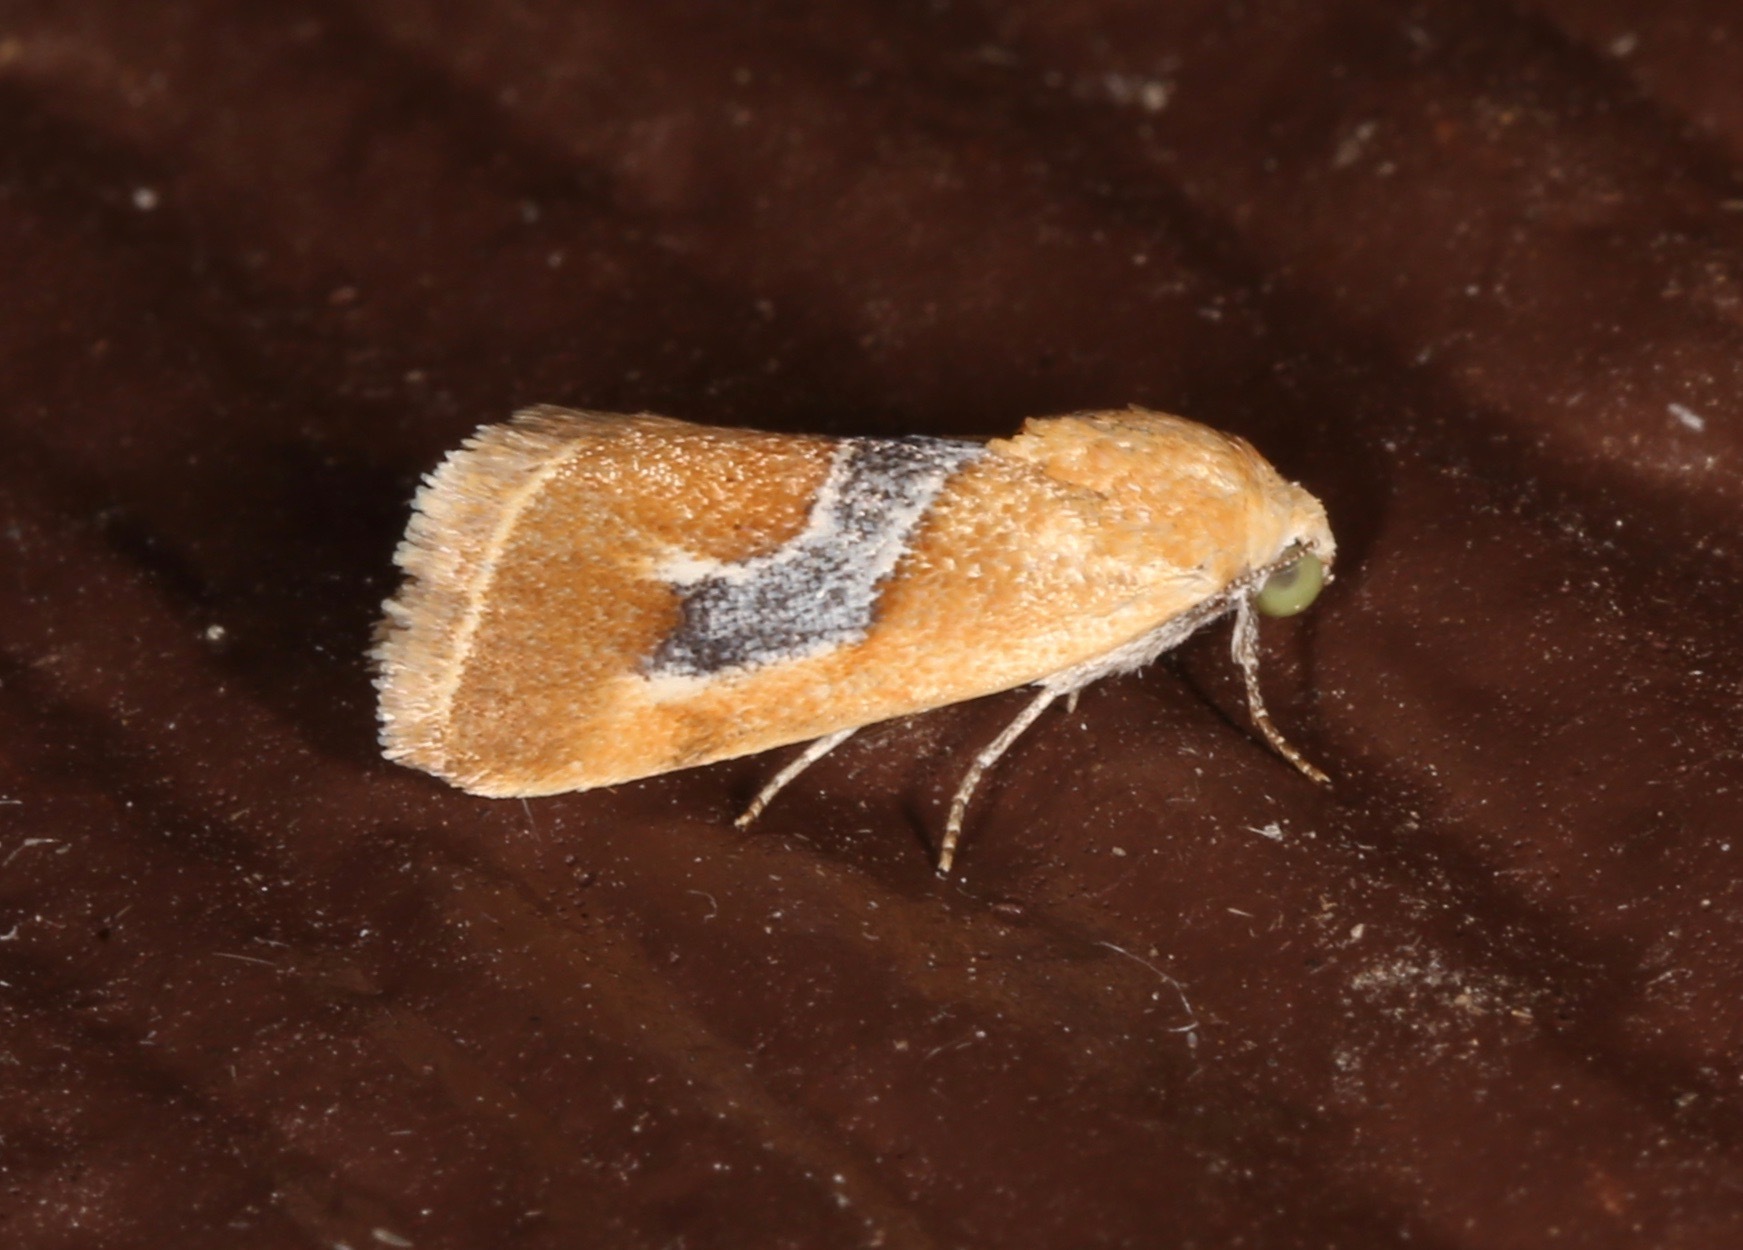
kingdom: Animalia
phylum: Arthropoda
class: Insecta
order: Lepidoptera
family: Noctuidae
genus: Ponometia
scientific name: Ponometia venustula
